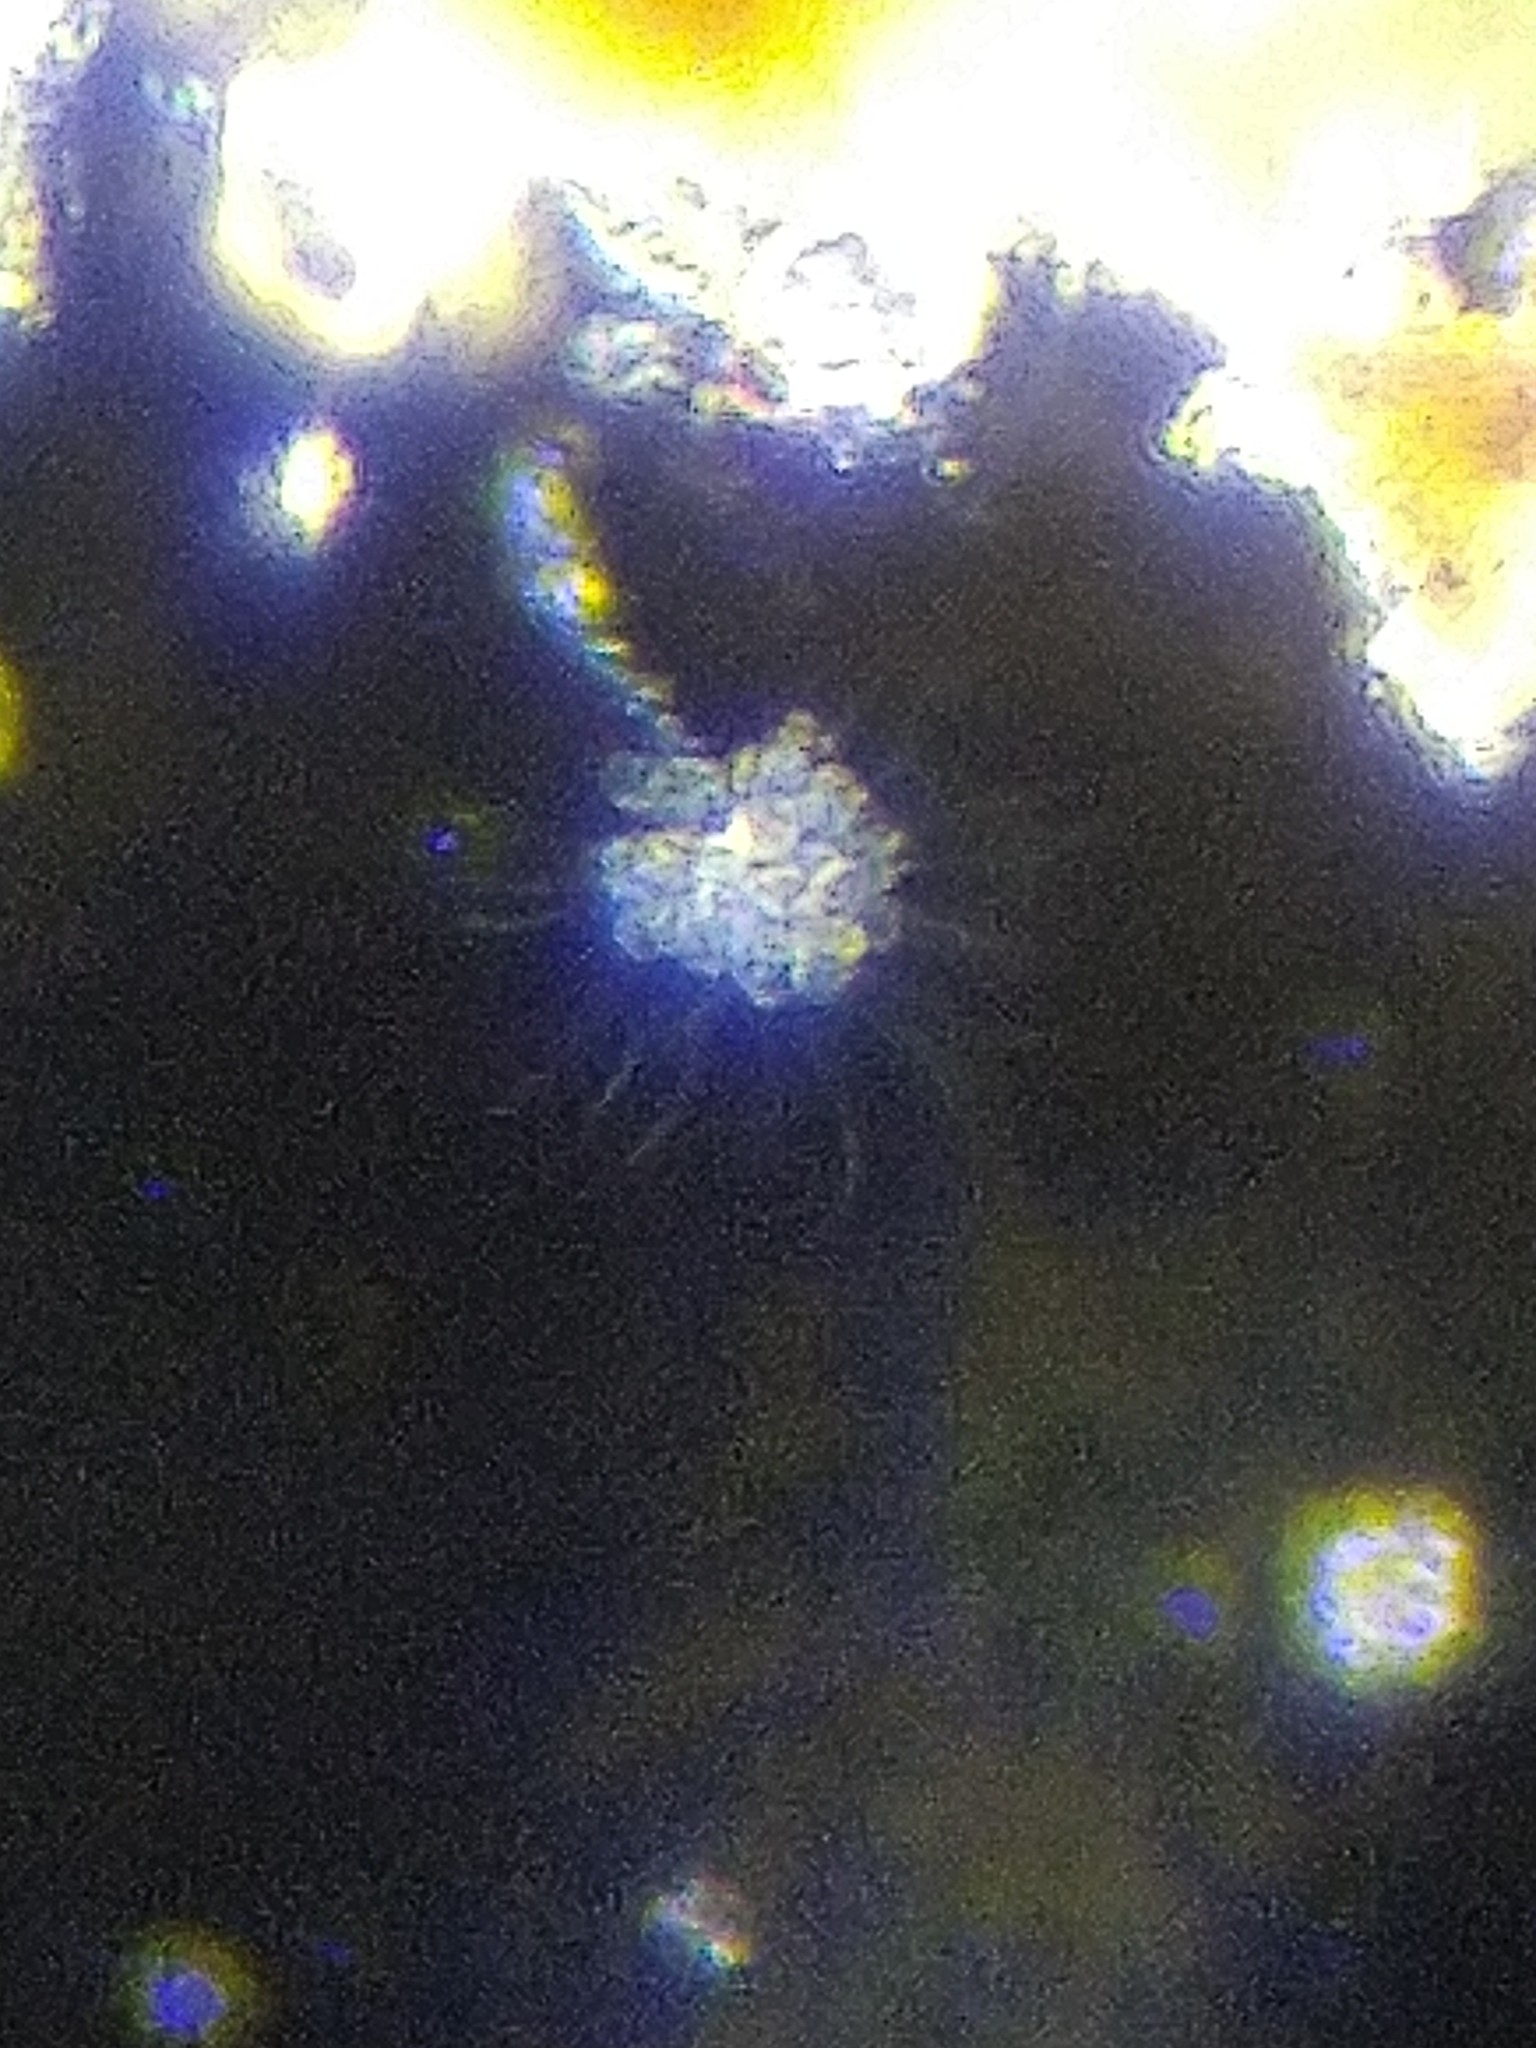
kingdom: Chromista
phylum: Ochrophyta
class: Chrysophyceae
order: Chromulinales
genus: Anthophysa
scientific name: Anthophysa vegetans
